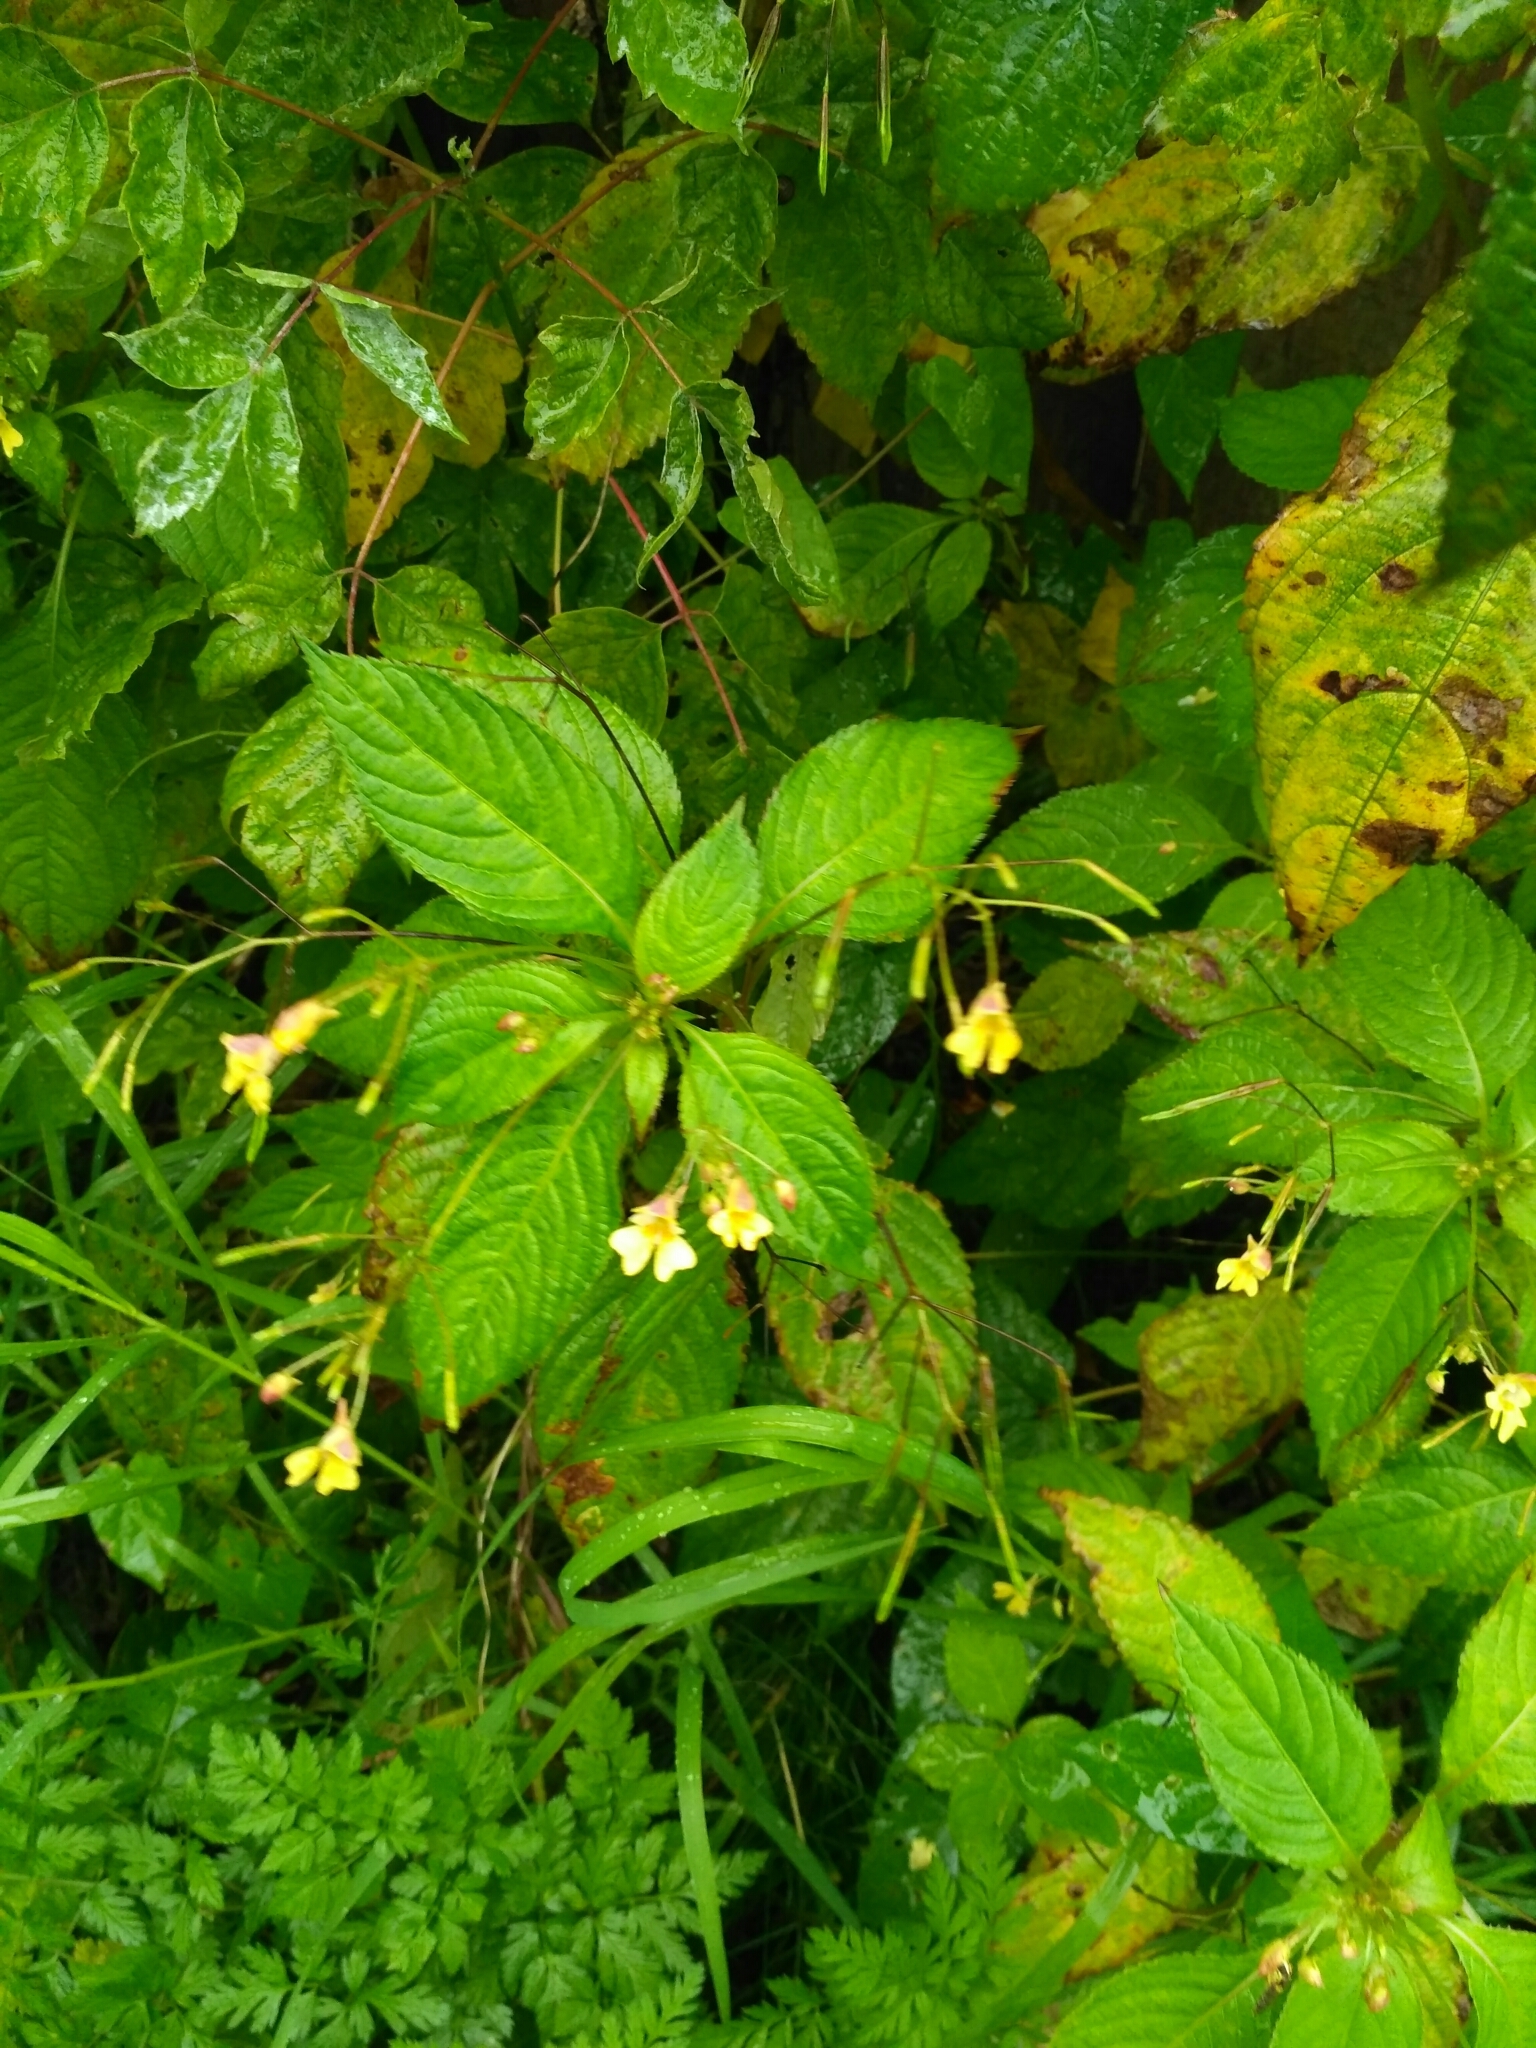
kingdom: Plantae
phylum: Tracheophyta
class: Magnoliopsida
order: Ericales
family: Balsaminaceae
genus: Impatiens
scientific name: Impatiens parviflora
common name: Small balsam
